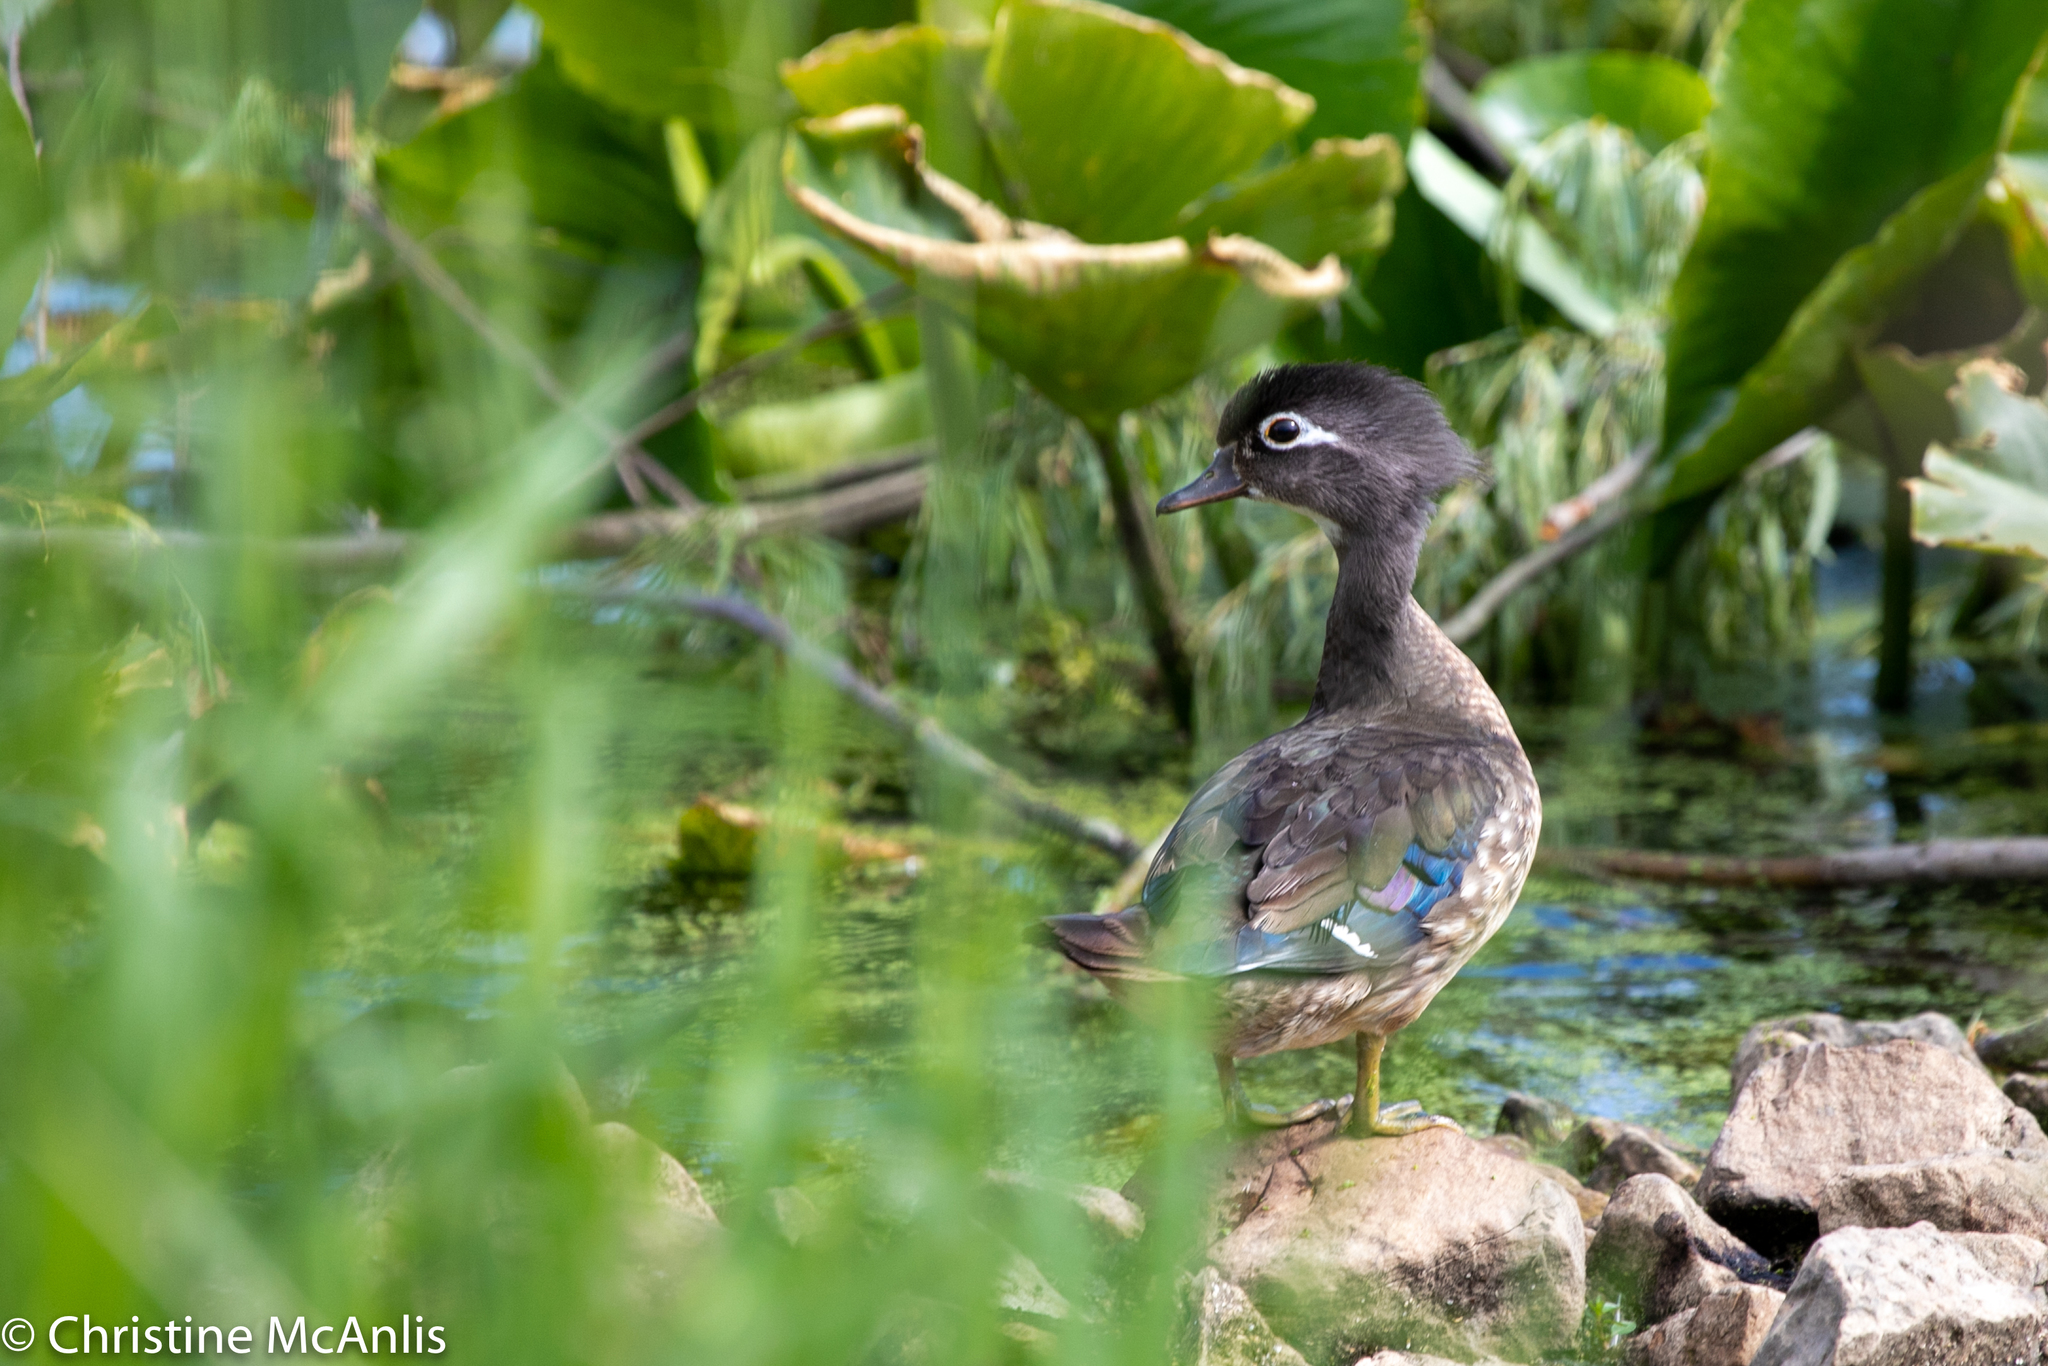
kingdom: Animalia
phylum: Chordata
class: Aves
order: Anseriformes
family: Anatidae
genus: Aix
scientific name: Aix sponsa
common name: Wood duck
